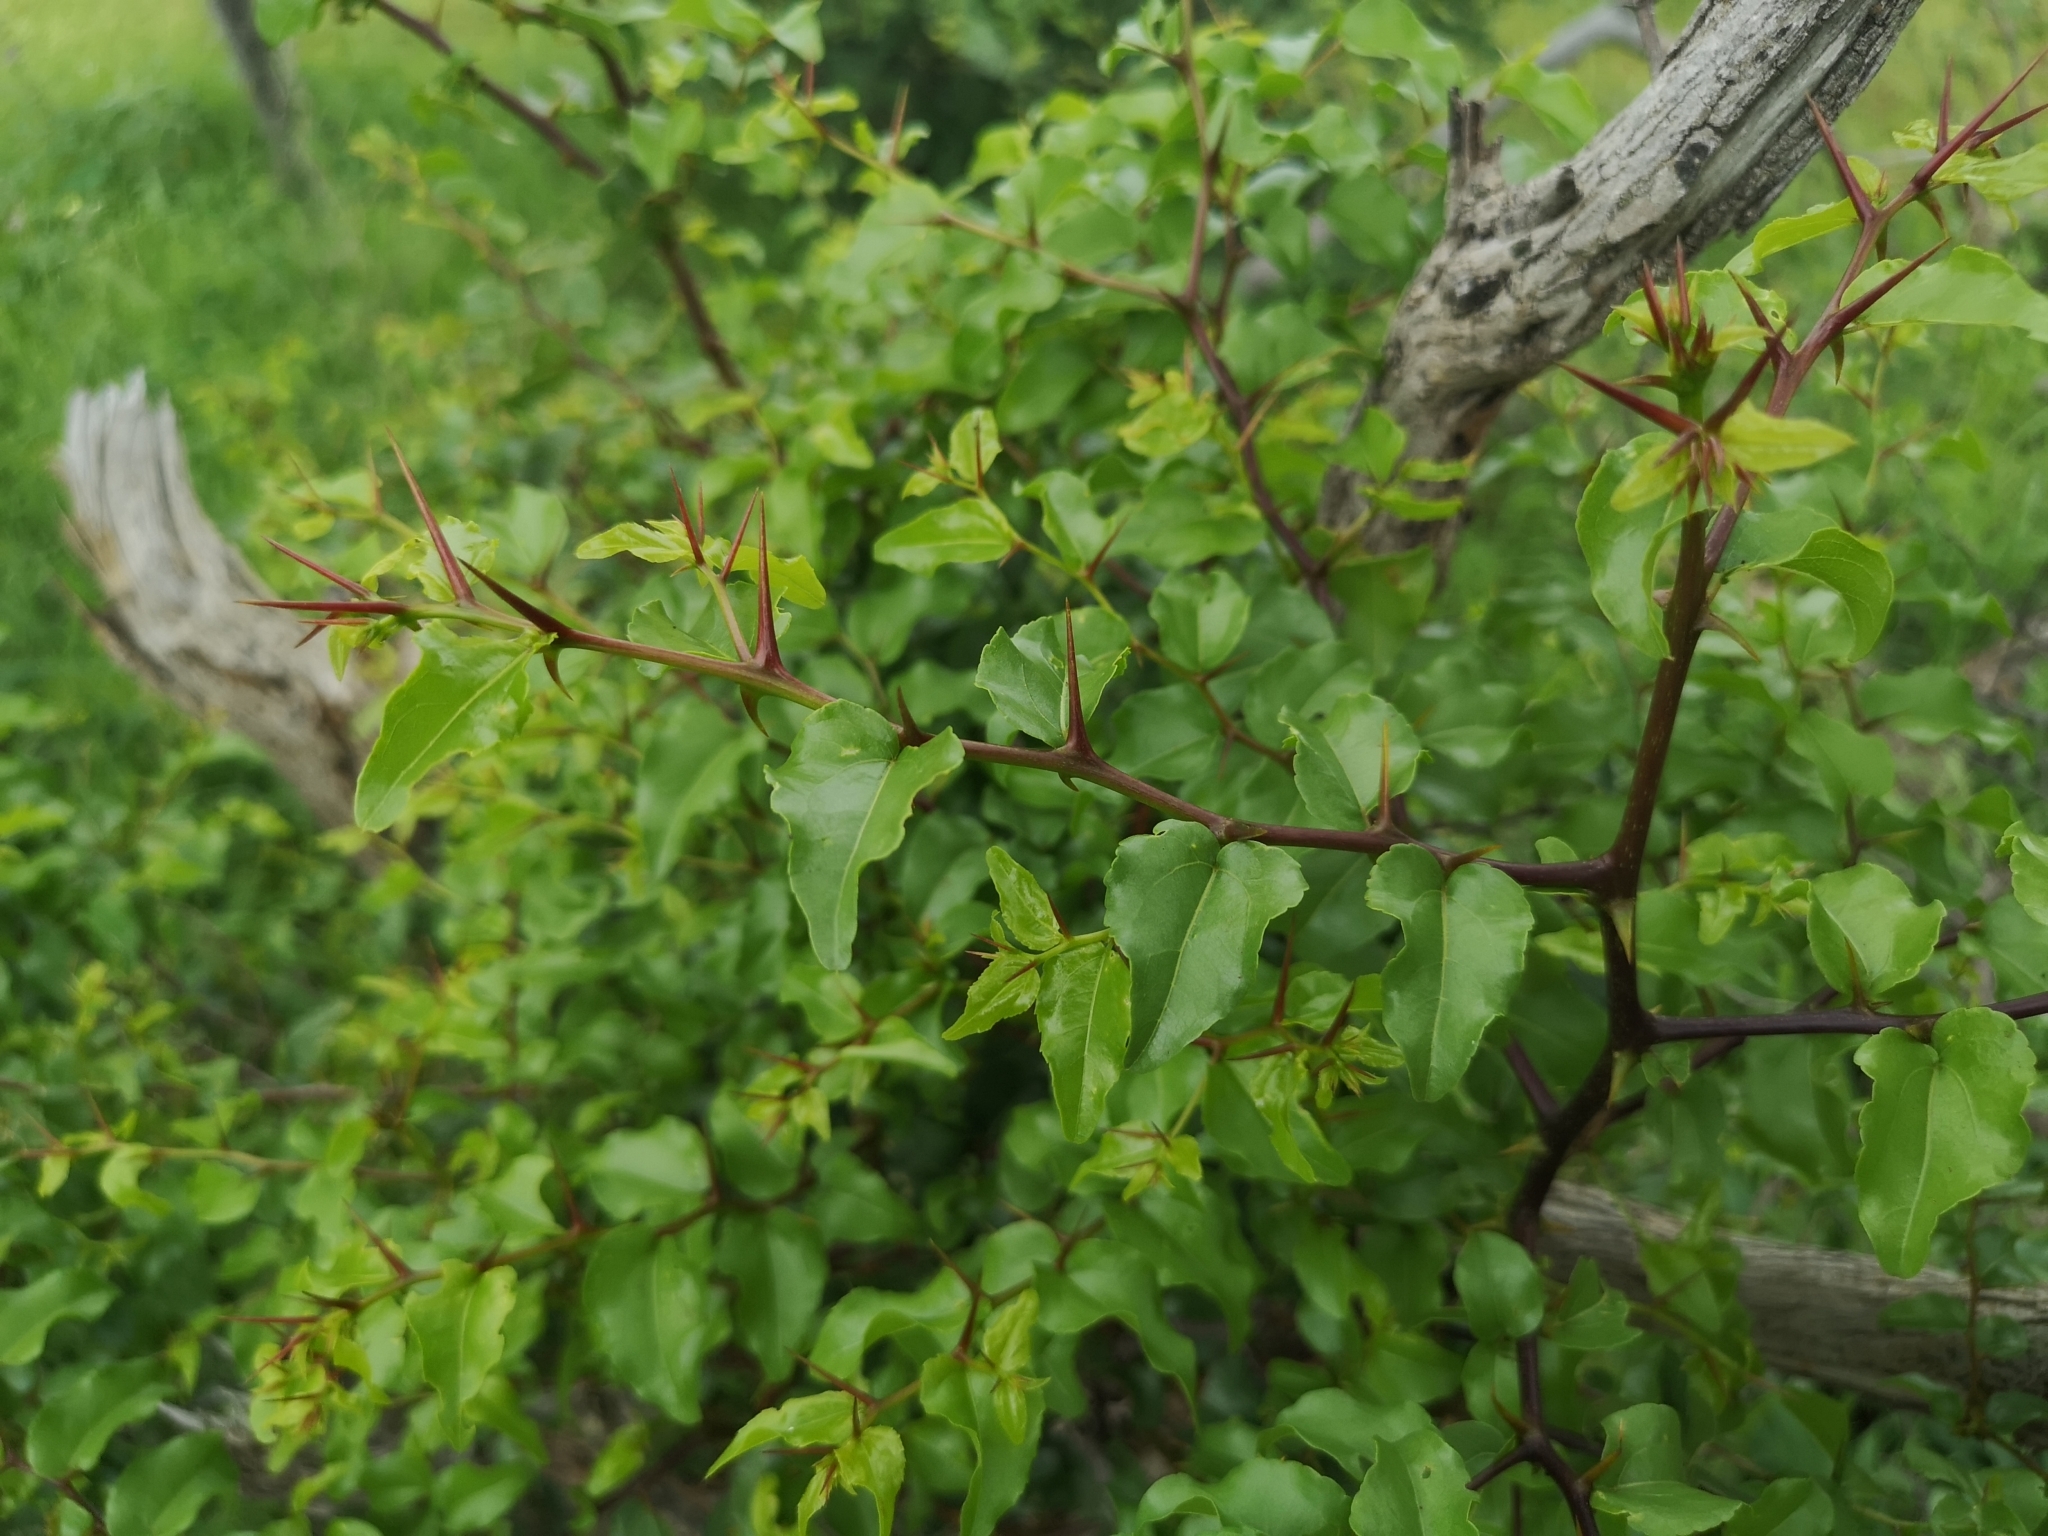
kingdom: Plantae
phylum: Tracheophyta
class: Magnoliopsida
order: Rosales
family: Rhamnaceae
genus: Ziziphus
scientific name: Ziziphus mucronata
